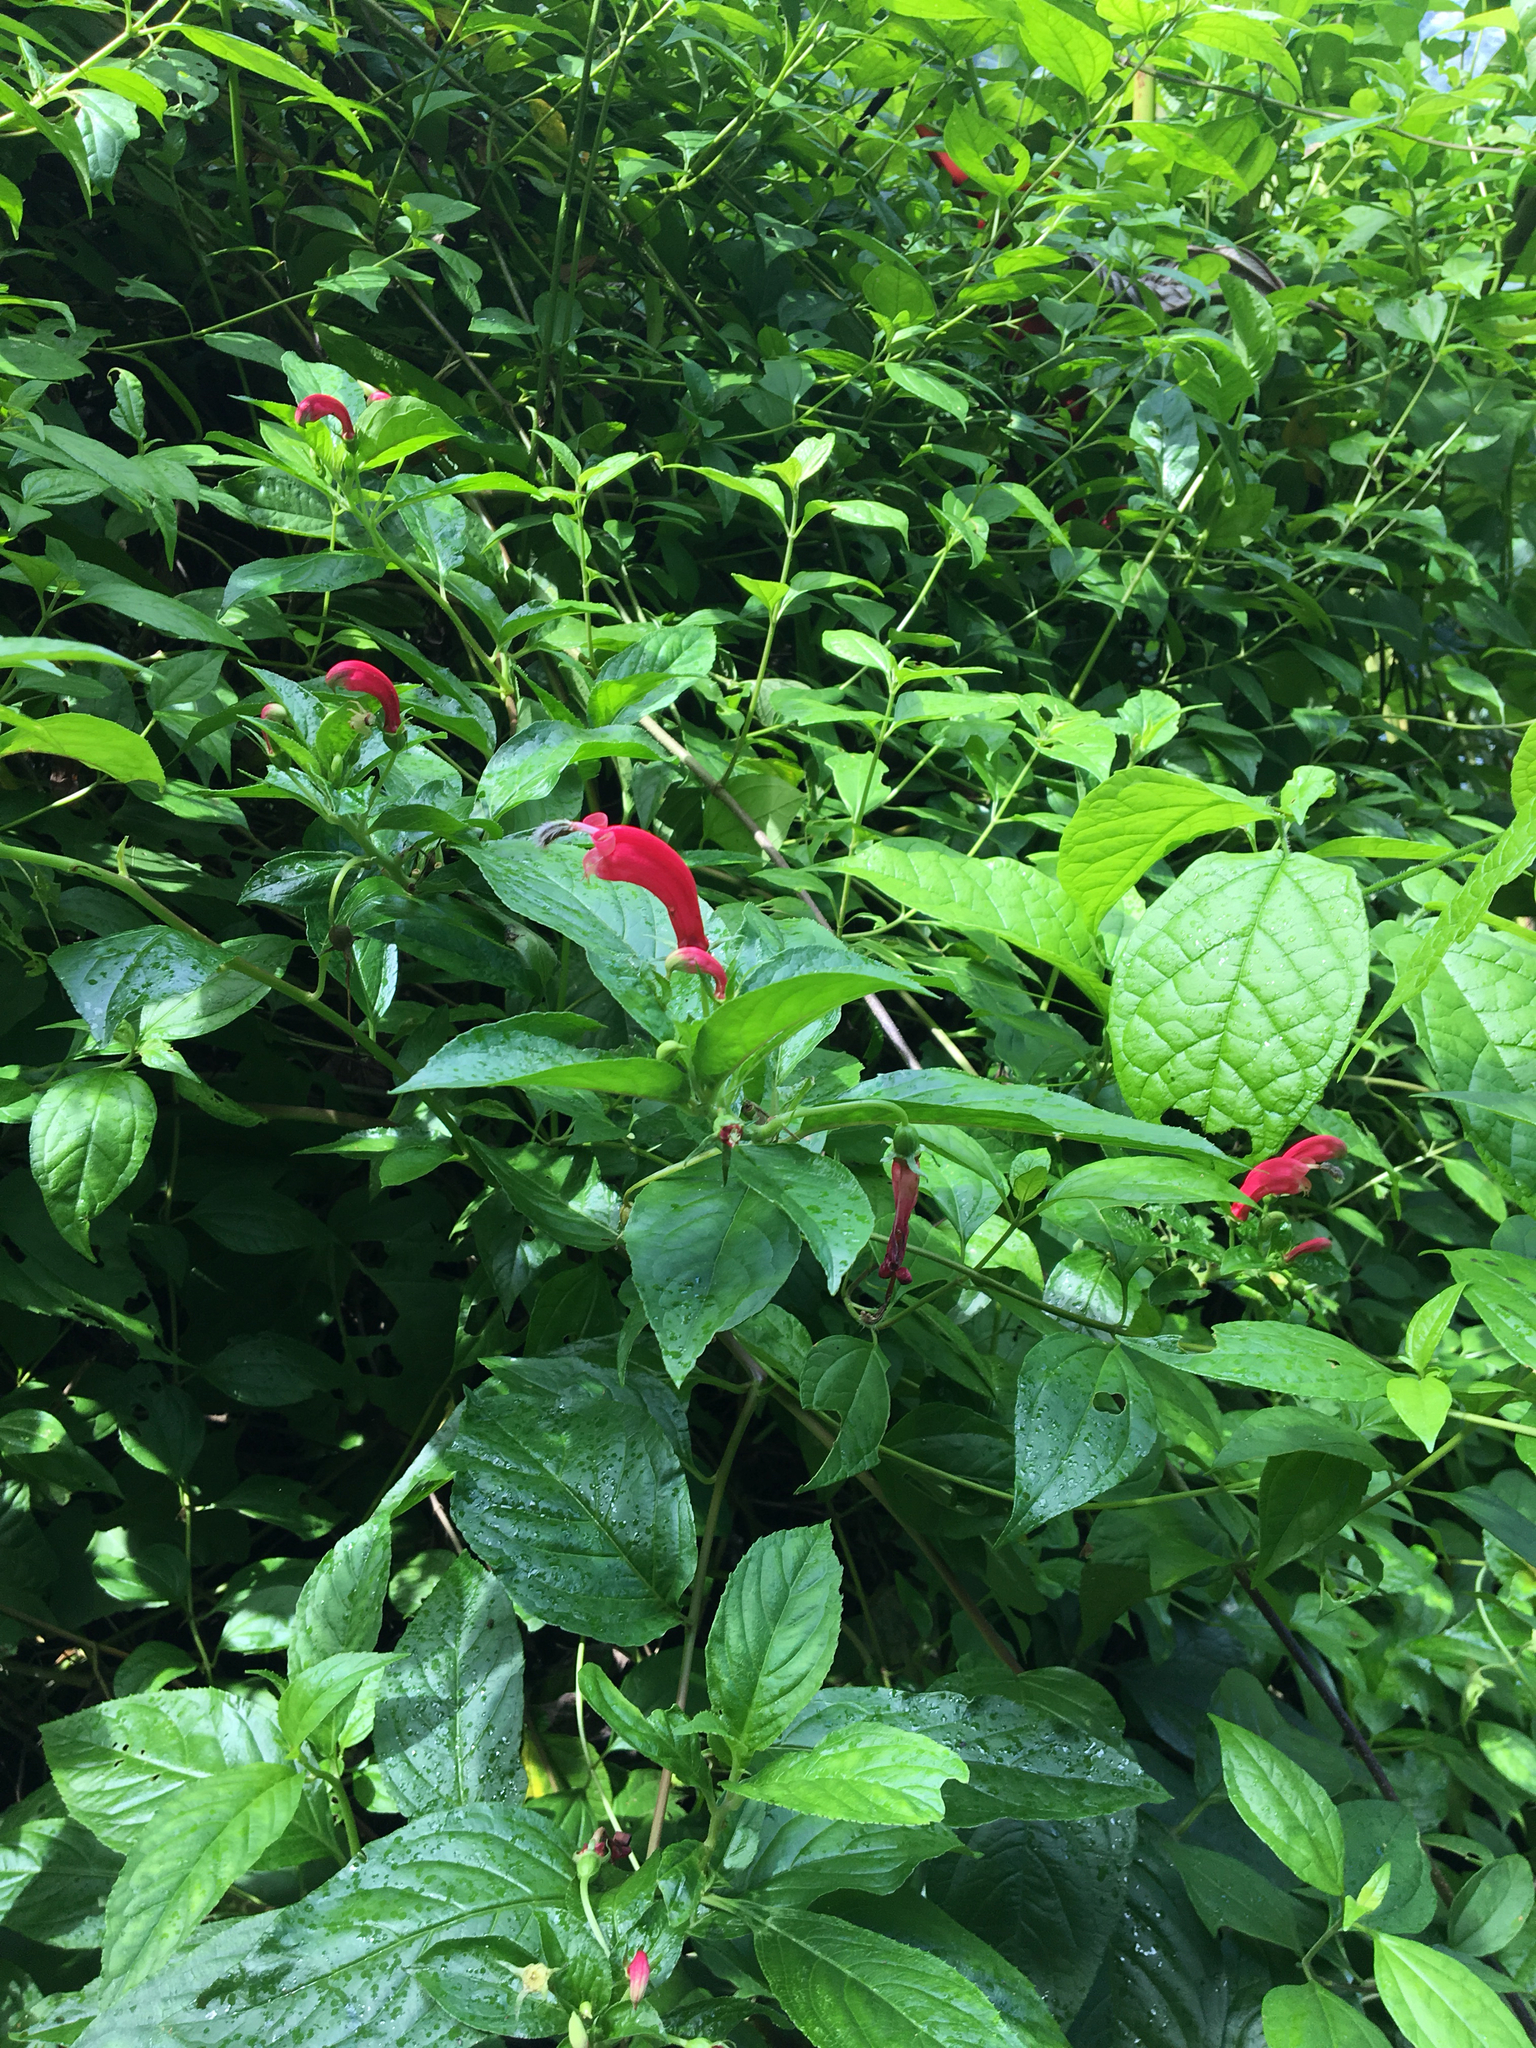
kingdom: Plantae
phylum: Tracheophyta
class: Magnoliopsida
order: Asterales
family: Campanulaceae
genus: Centropogon
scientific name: Centropogon cornutus
